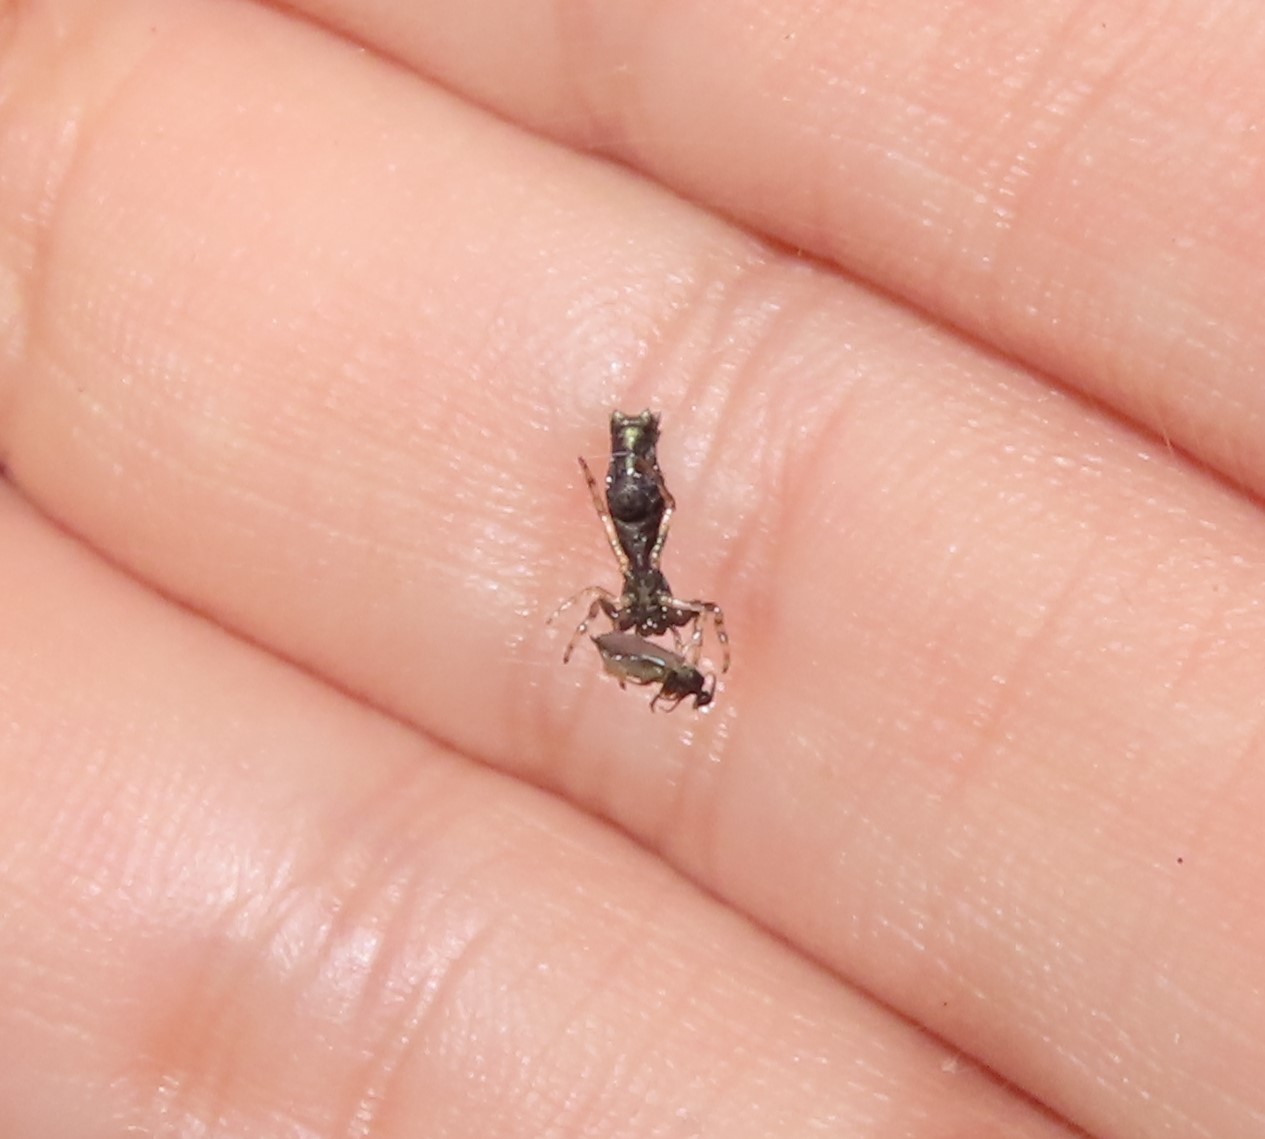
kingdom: Animalia
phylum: Arthropoda
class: Arachnida
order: Araneae
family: Araneidae
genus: Micrathena
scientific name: Micrathena gracilis
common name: Orb weavers
